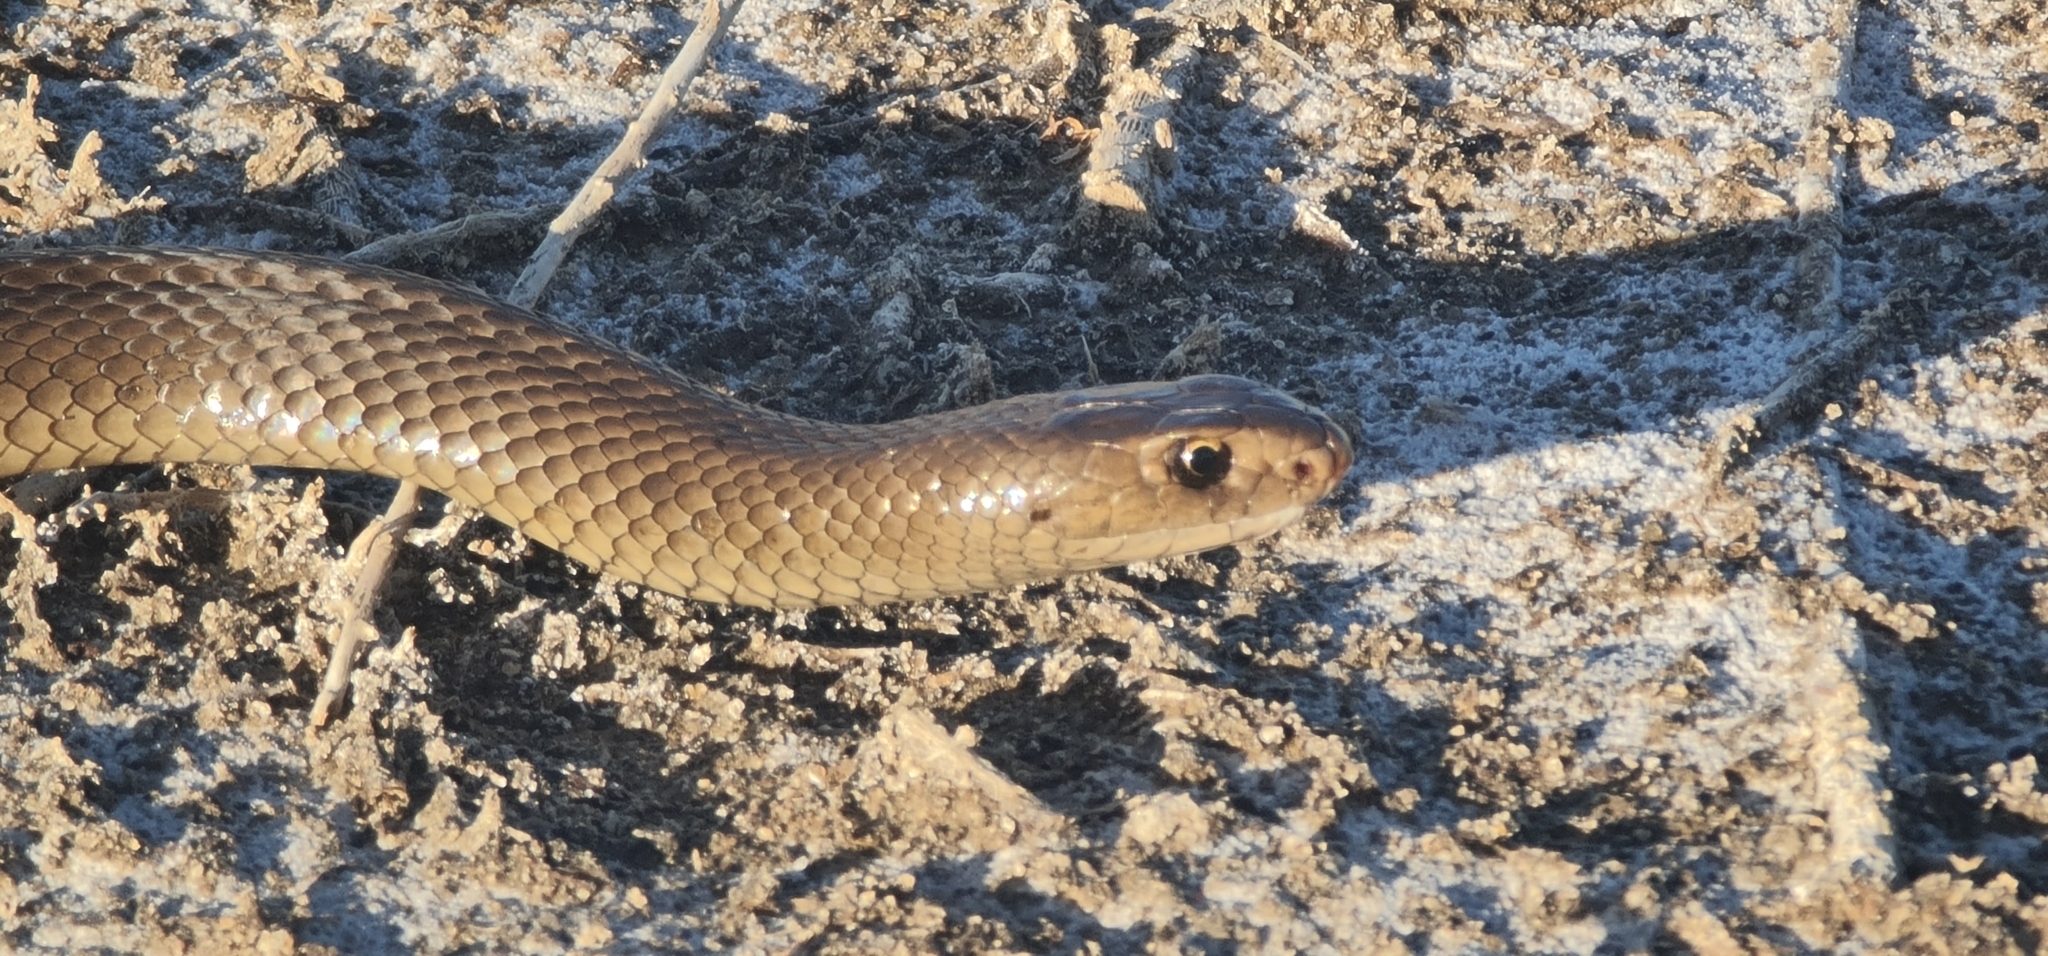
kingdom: Animalia
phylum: Chordata
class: Squamata
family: Elapidae
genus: Pseudonaja
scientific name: Pseudonaja textilis
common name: Eastern brown snake
